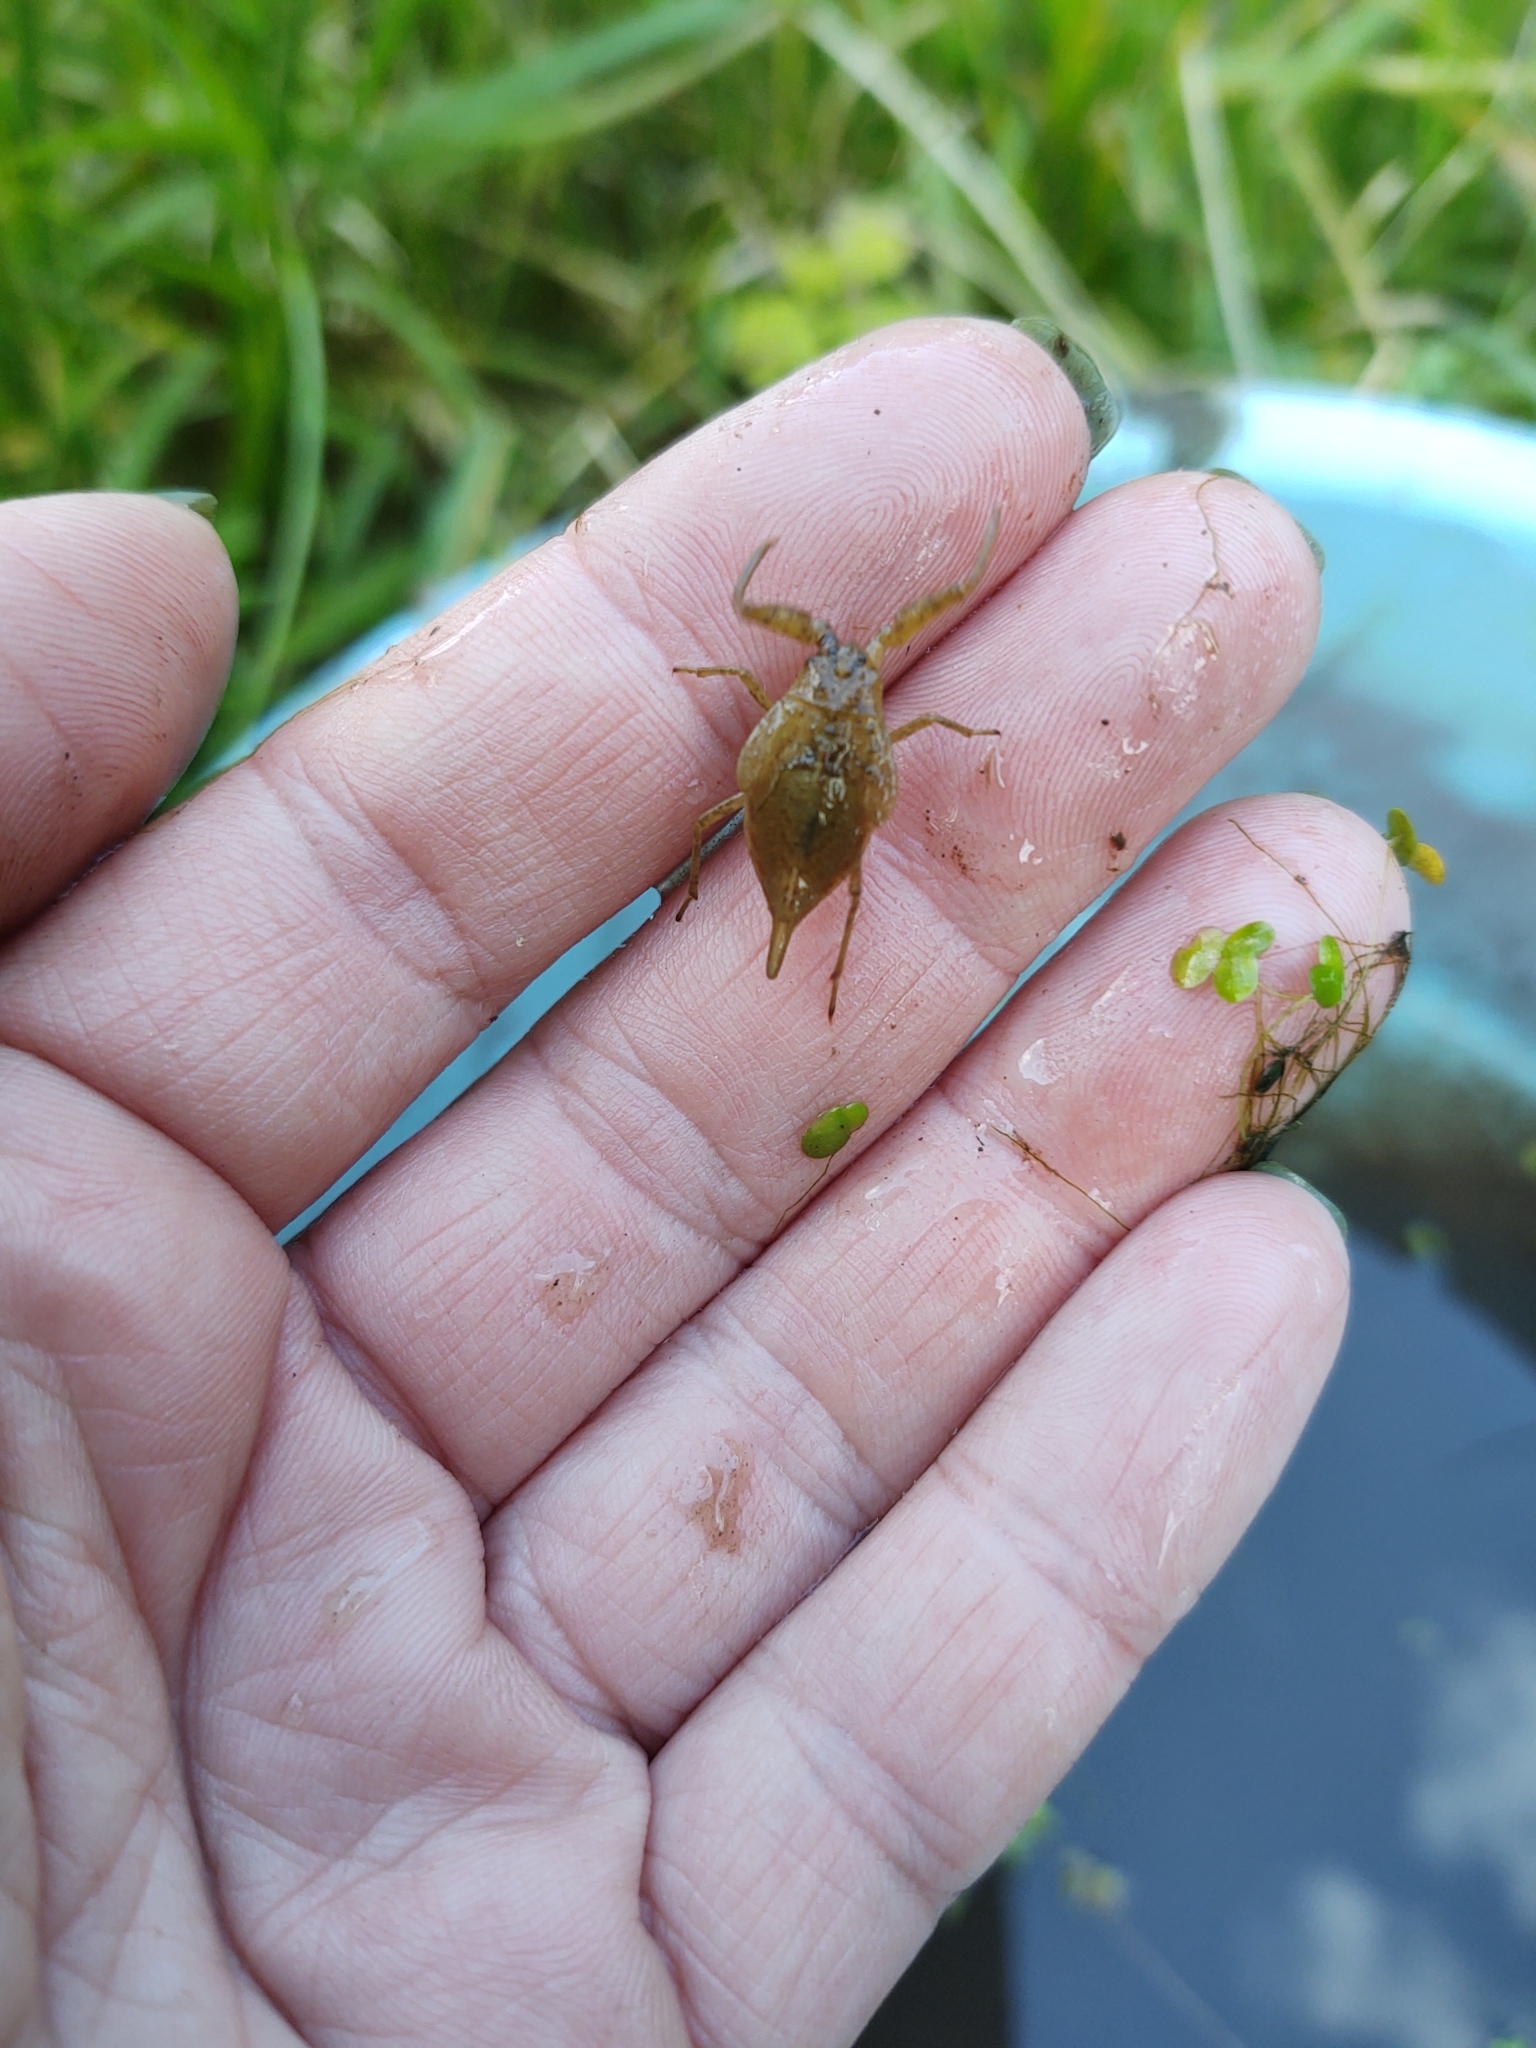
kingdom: Animalia
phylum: Arthropoda
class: Insecta
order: Hemiptera
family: Nepidae
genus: Nepa
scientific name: Nepa cinerea
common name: Water scorpion
